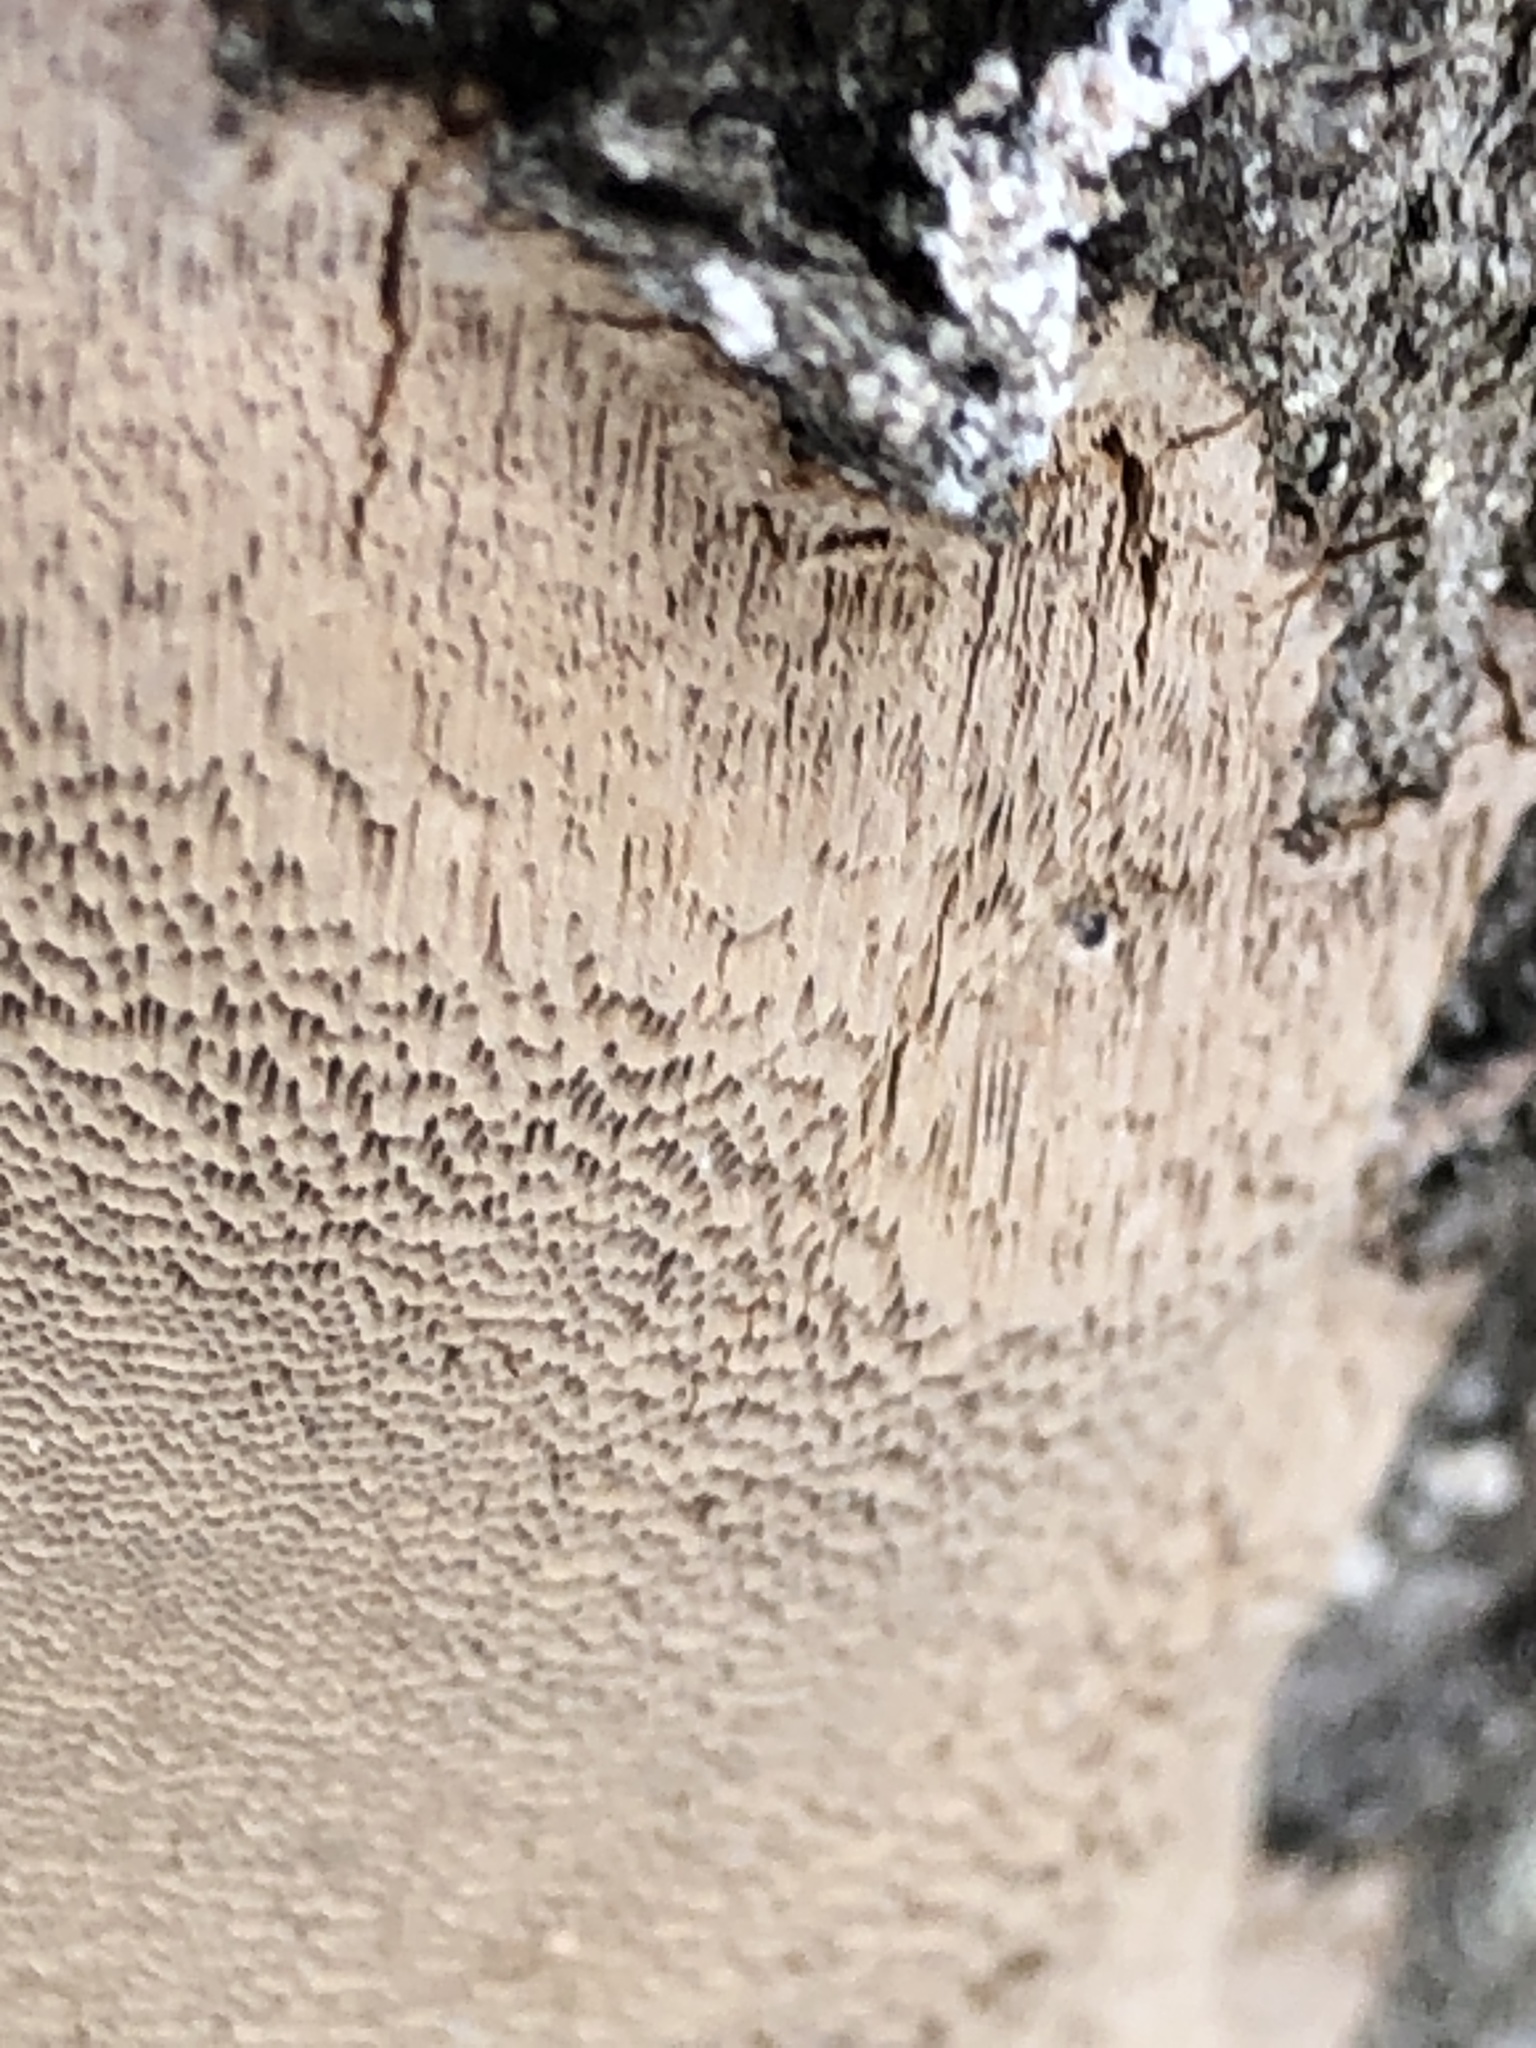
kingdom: Fungi
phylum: Basidiomycota
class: Agaricomycetes
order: Hymenochaetales
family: Hymenochaetaceae
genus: Fomitiporia
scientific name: Fomitiporia punctata
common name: Elbowpatch crust
